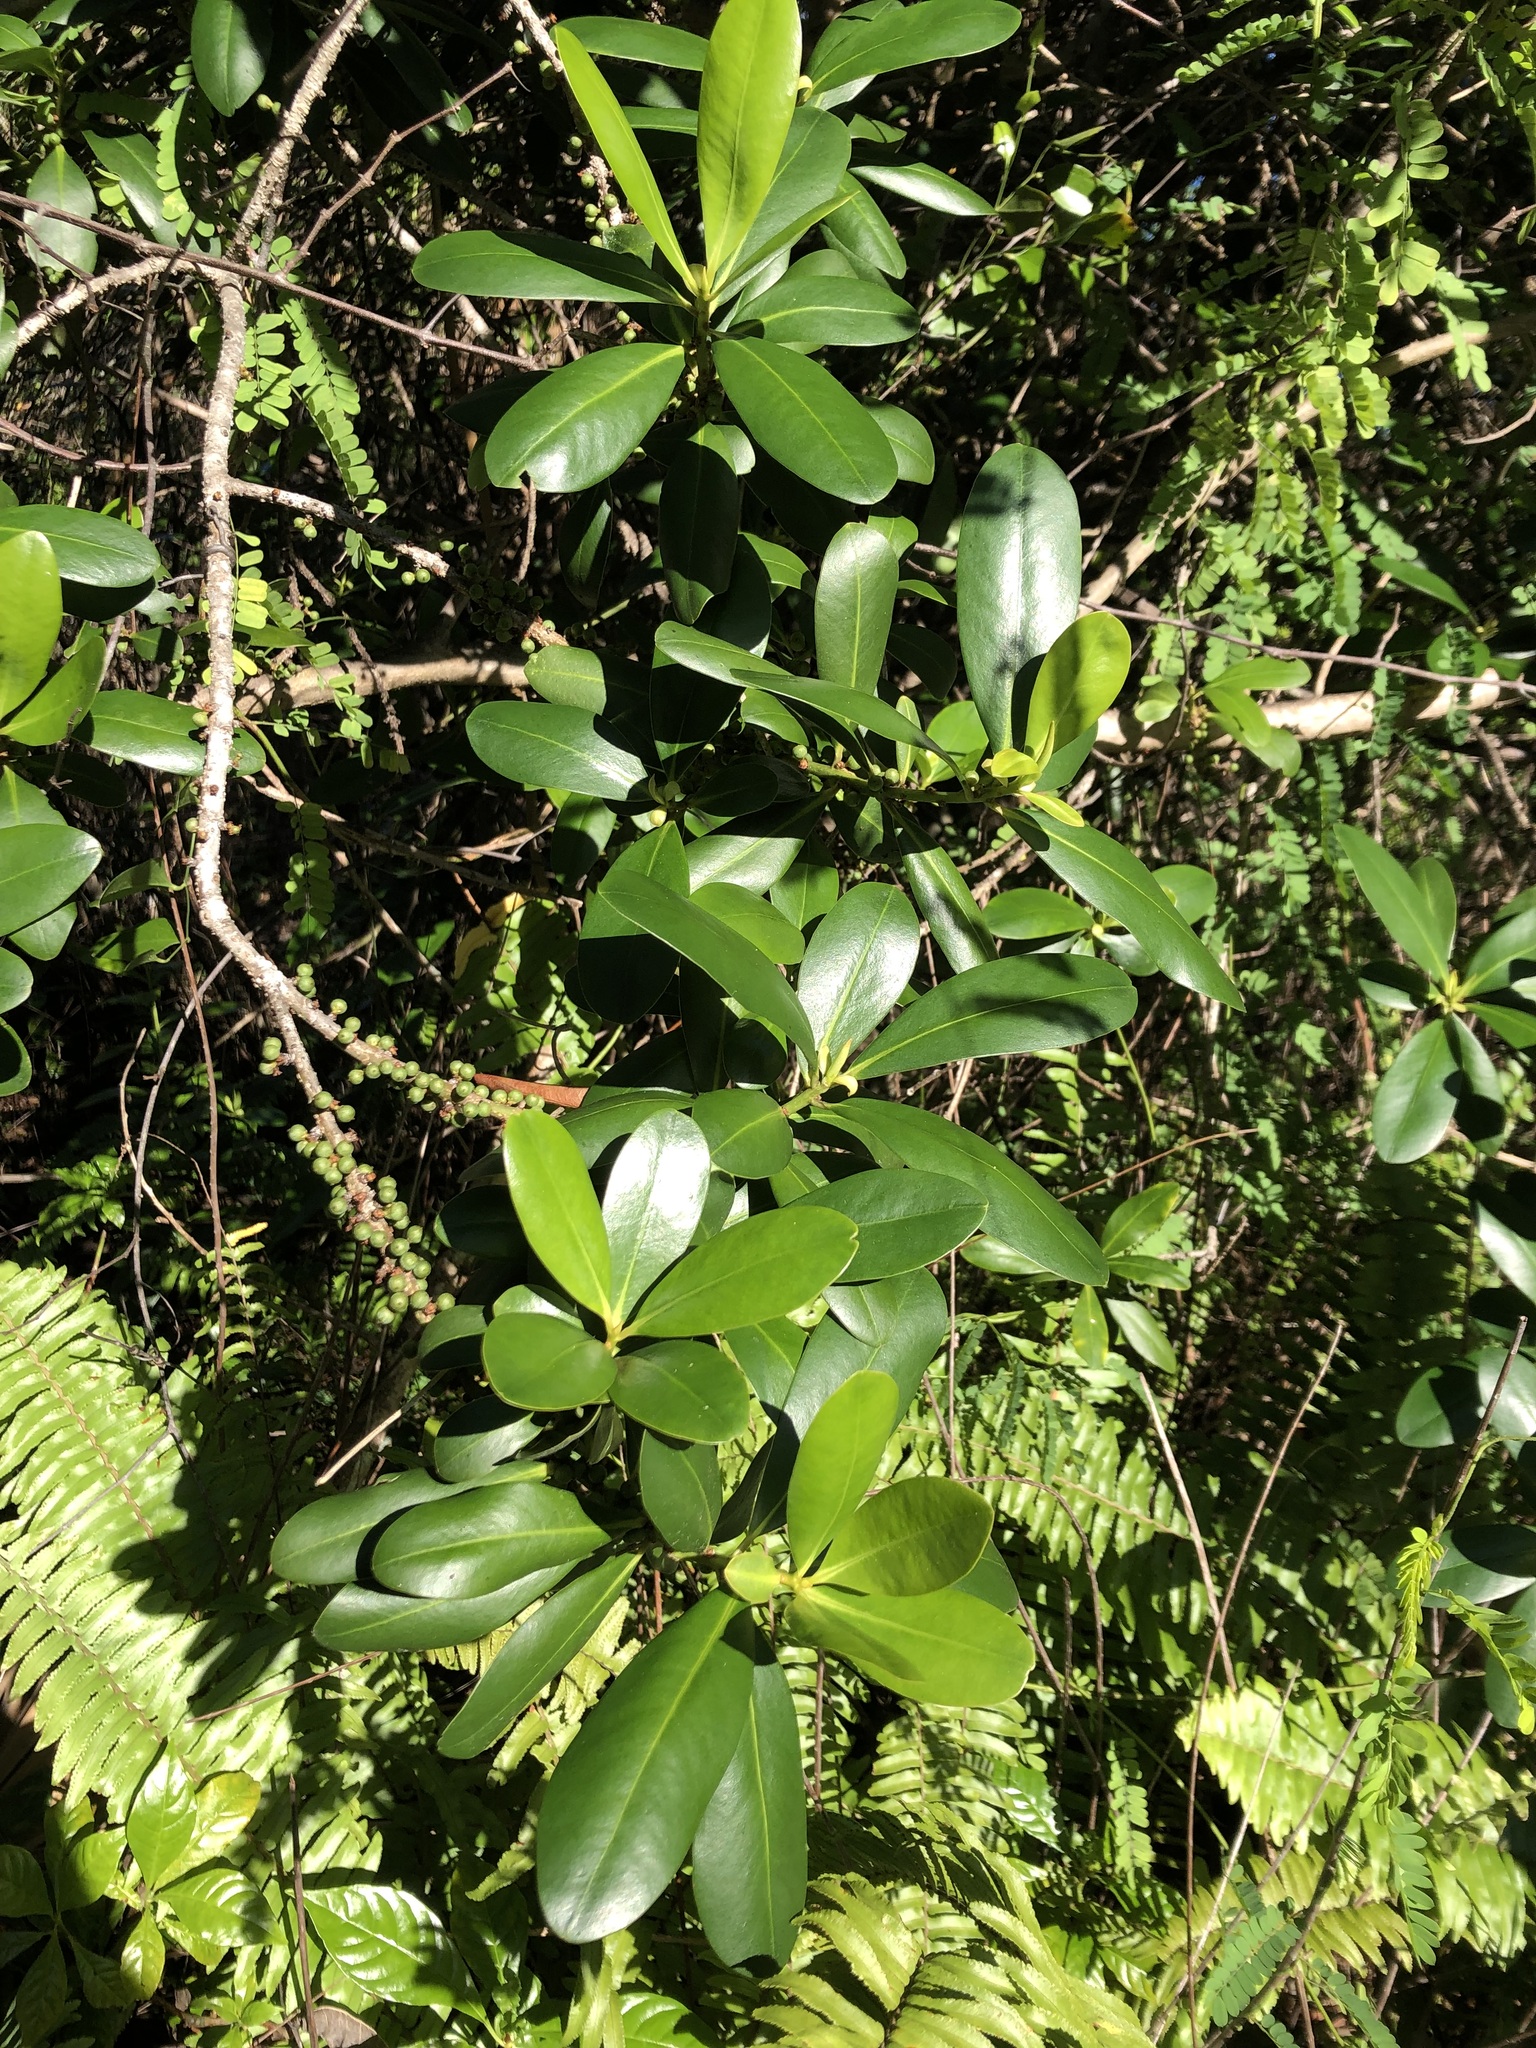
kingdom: Plantae
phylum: Tracheophyta
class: Magnoliopsida
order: Ericales
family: Primulaceae
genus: Myrsine
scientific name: Myrsine floridana
